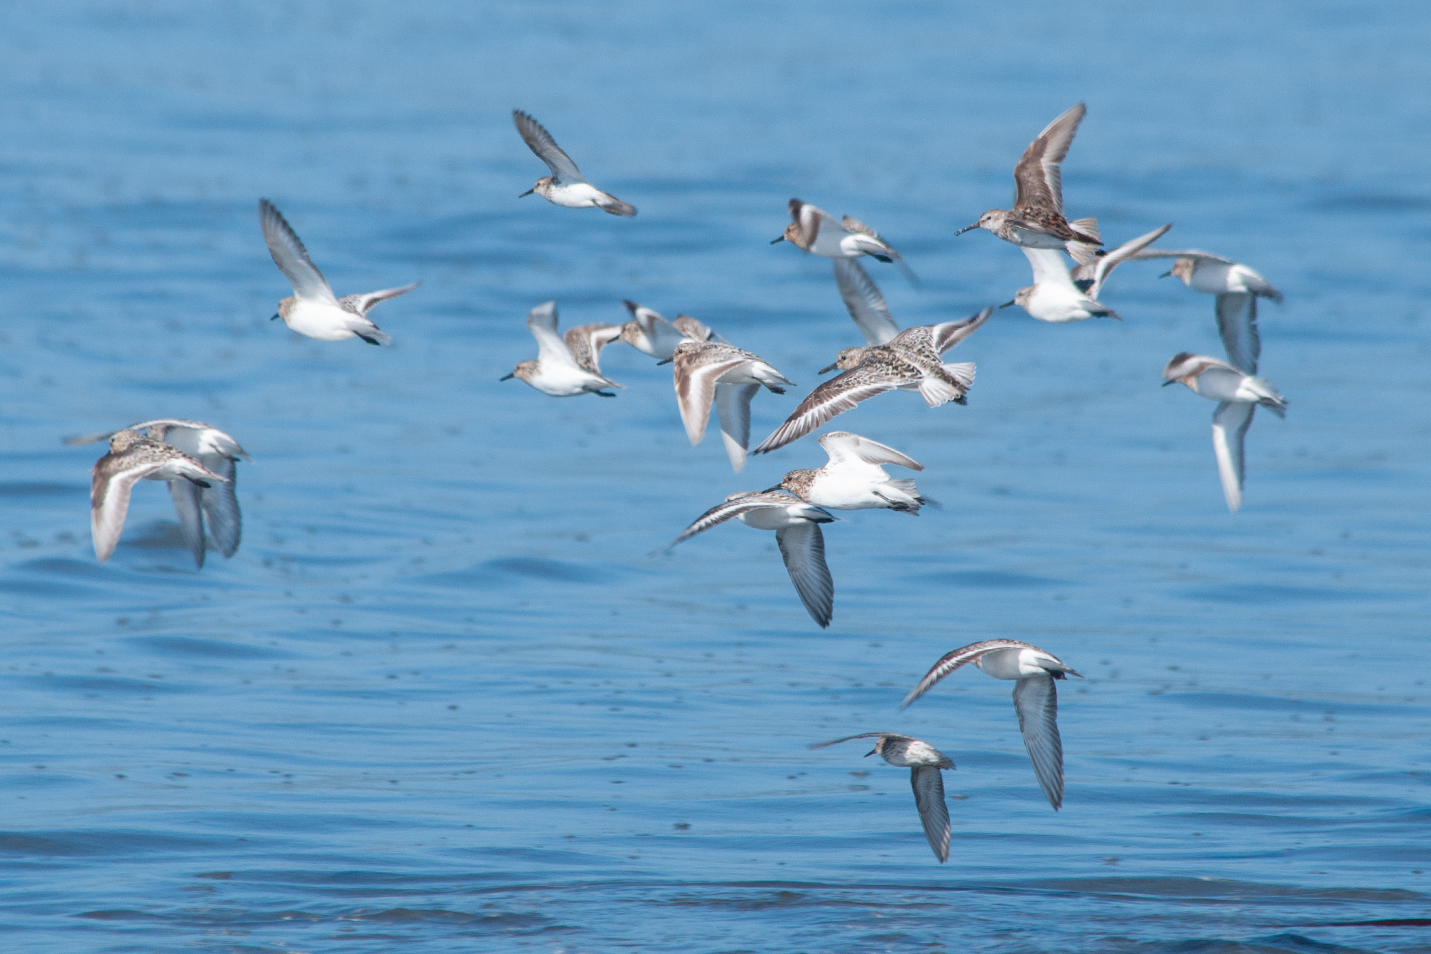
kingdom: Animalia
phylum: Chordata
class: Aves
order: Charadriiformes
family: Scolopacidae
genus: Calidris
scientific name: Calidris alba
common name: Sanderling
